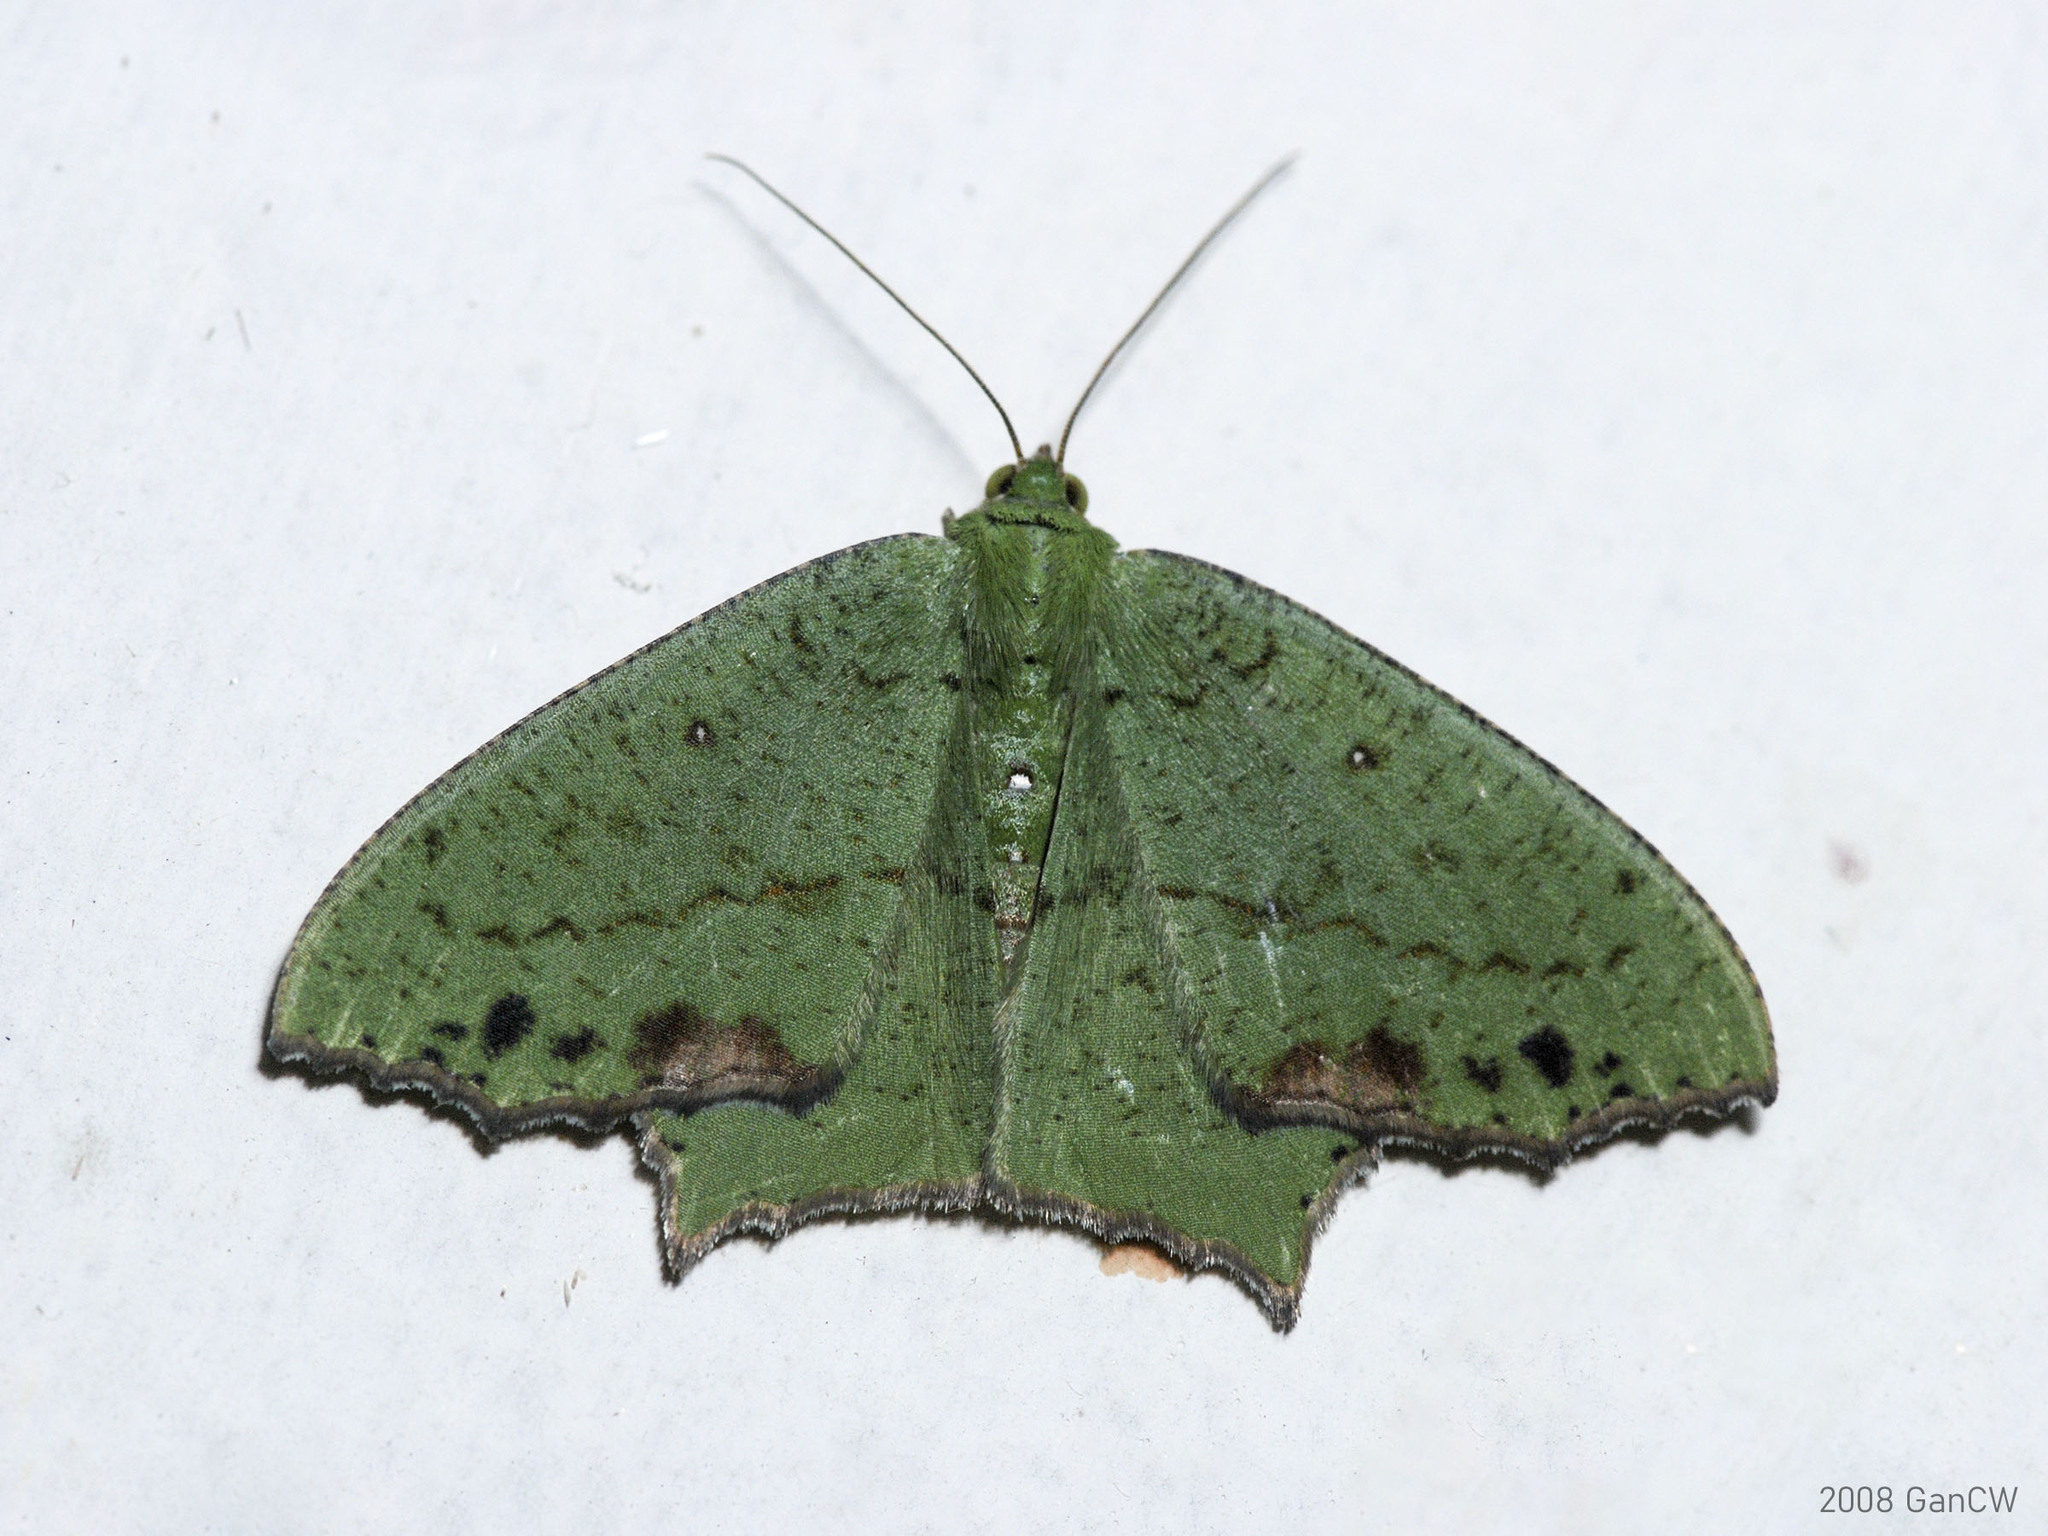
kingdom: Animalia
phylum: Arthropoda
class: Insecta
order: Lepidoptera
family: Geometridae
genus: Dooabia
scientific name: Dooabia lunifera
